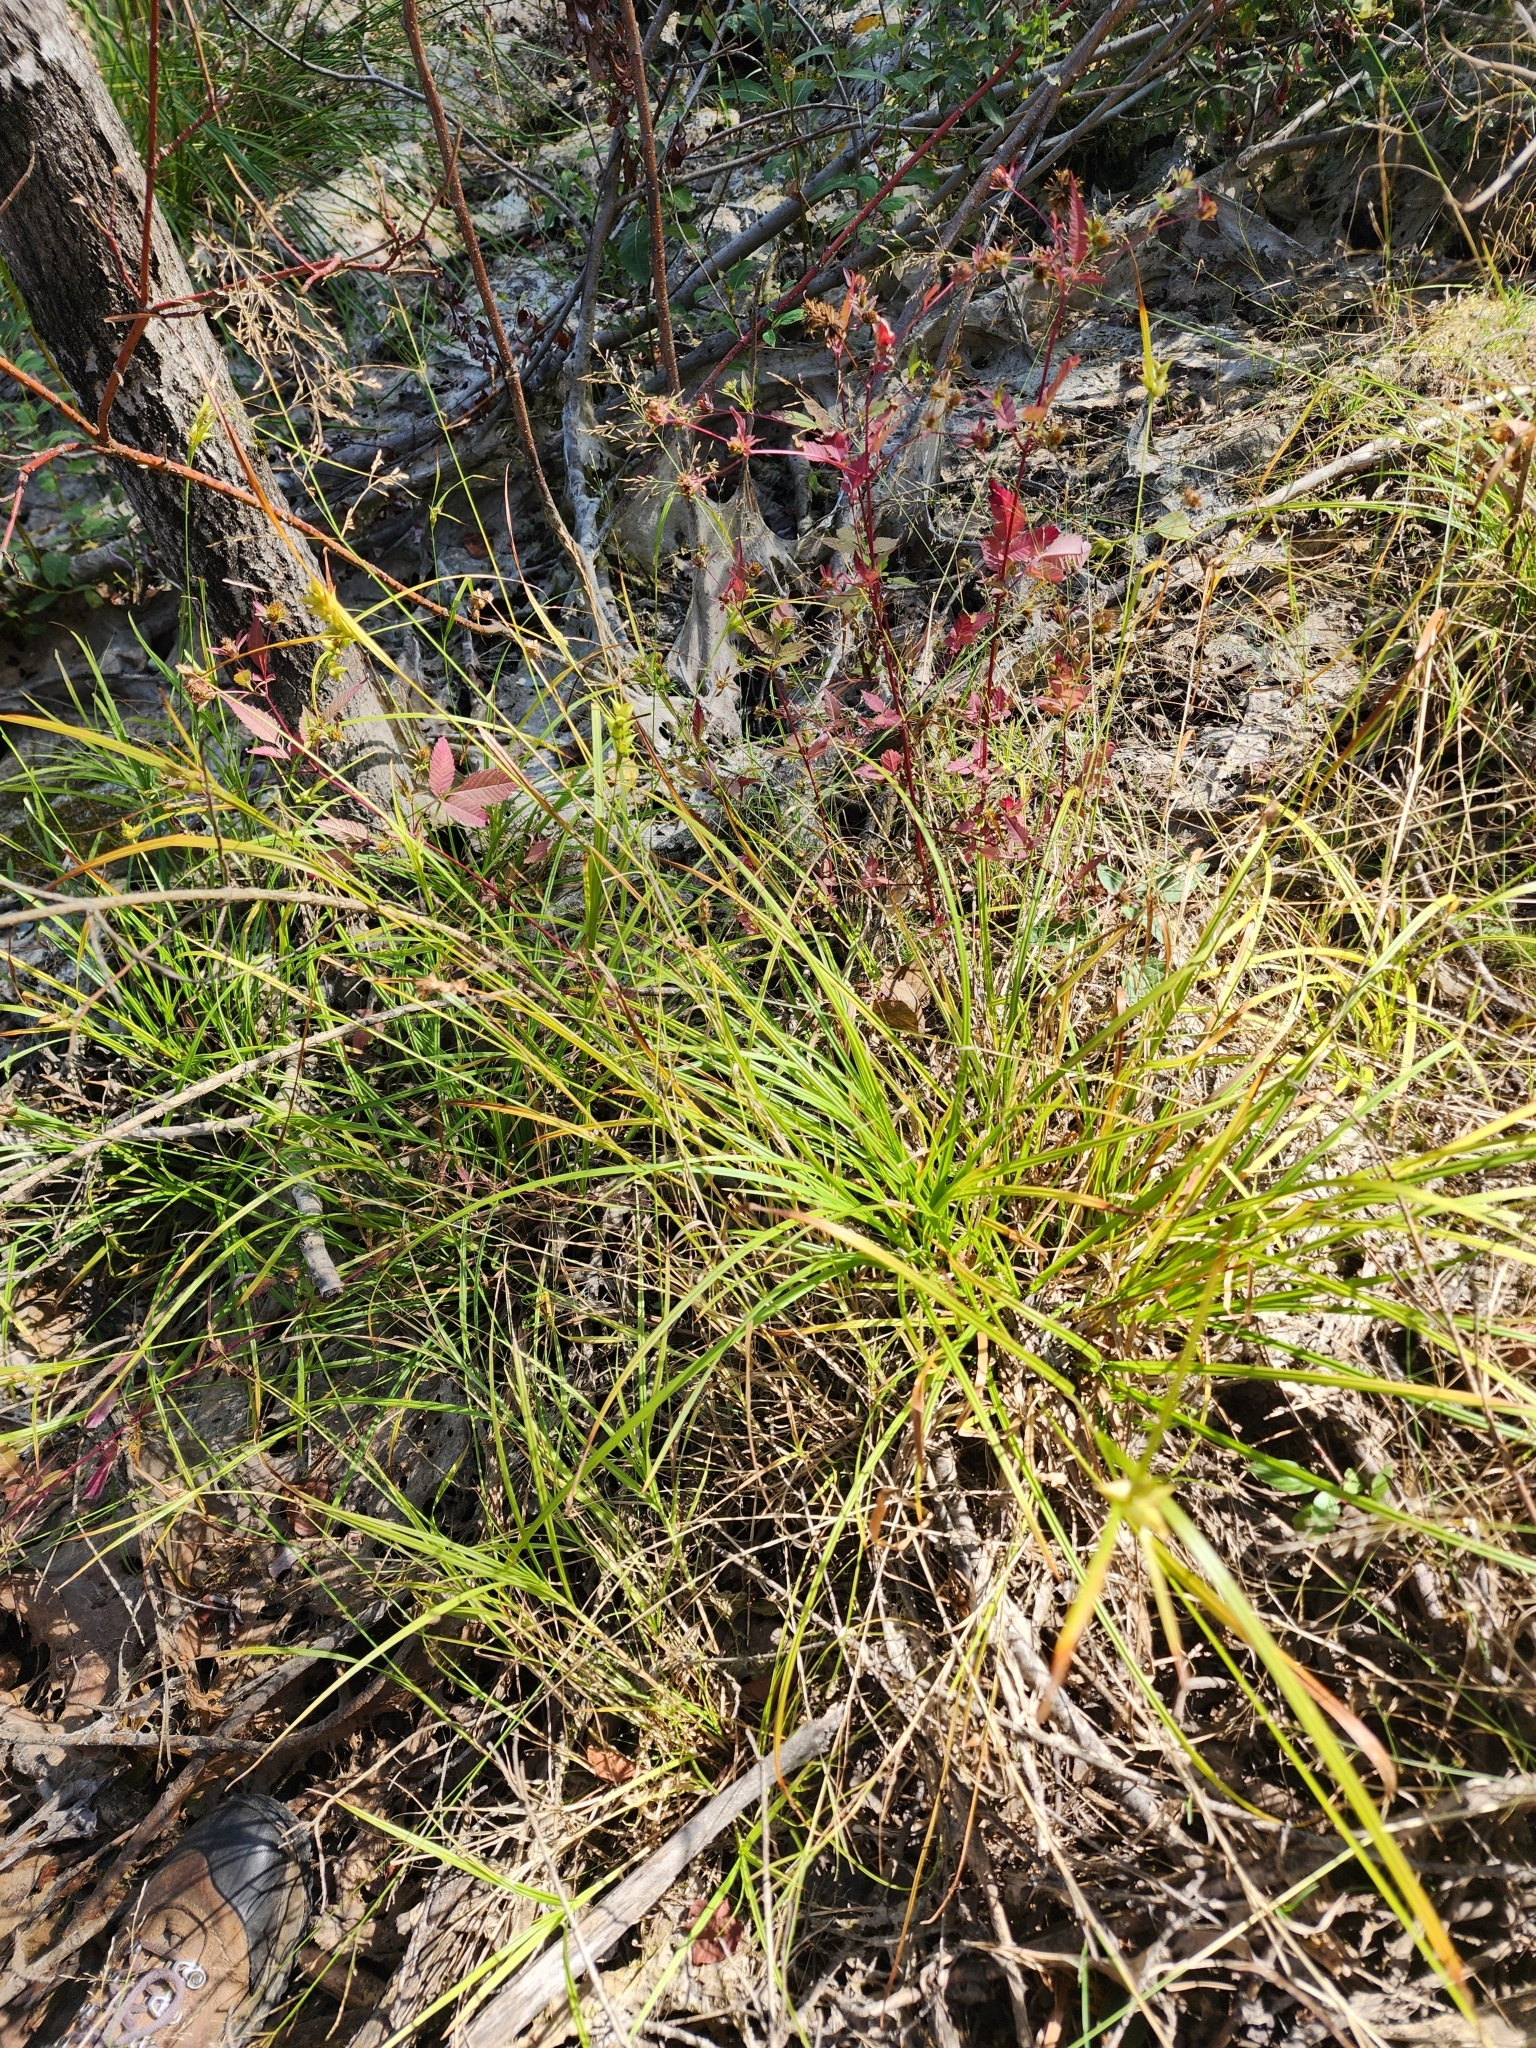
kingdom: Plantae
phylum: Tracheophyta
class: Liliopsida
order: Poales
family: Cyperaceae
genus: Carex
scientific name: Carex intumescens
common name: Greater bladder sedge
